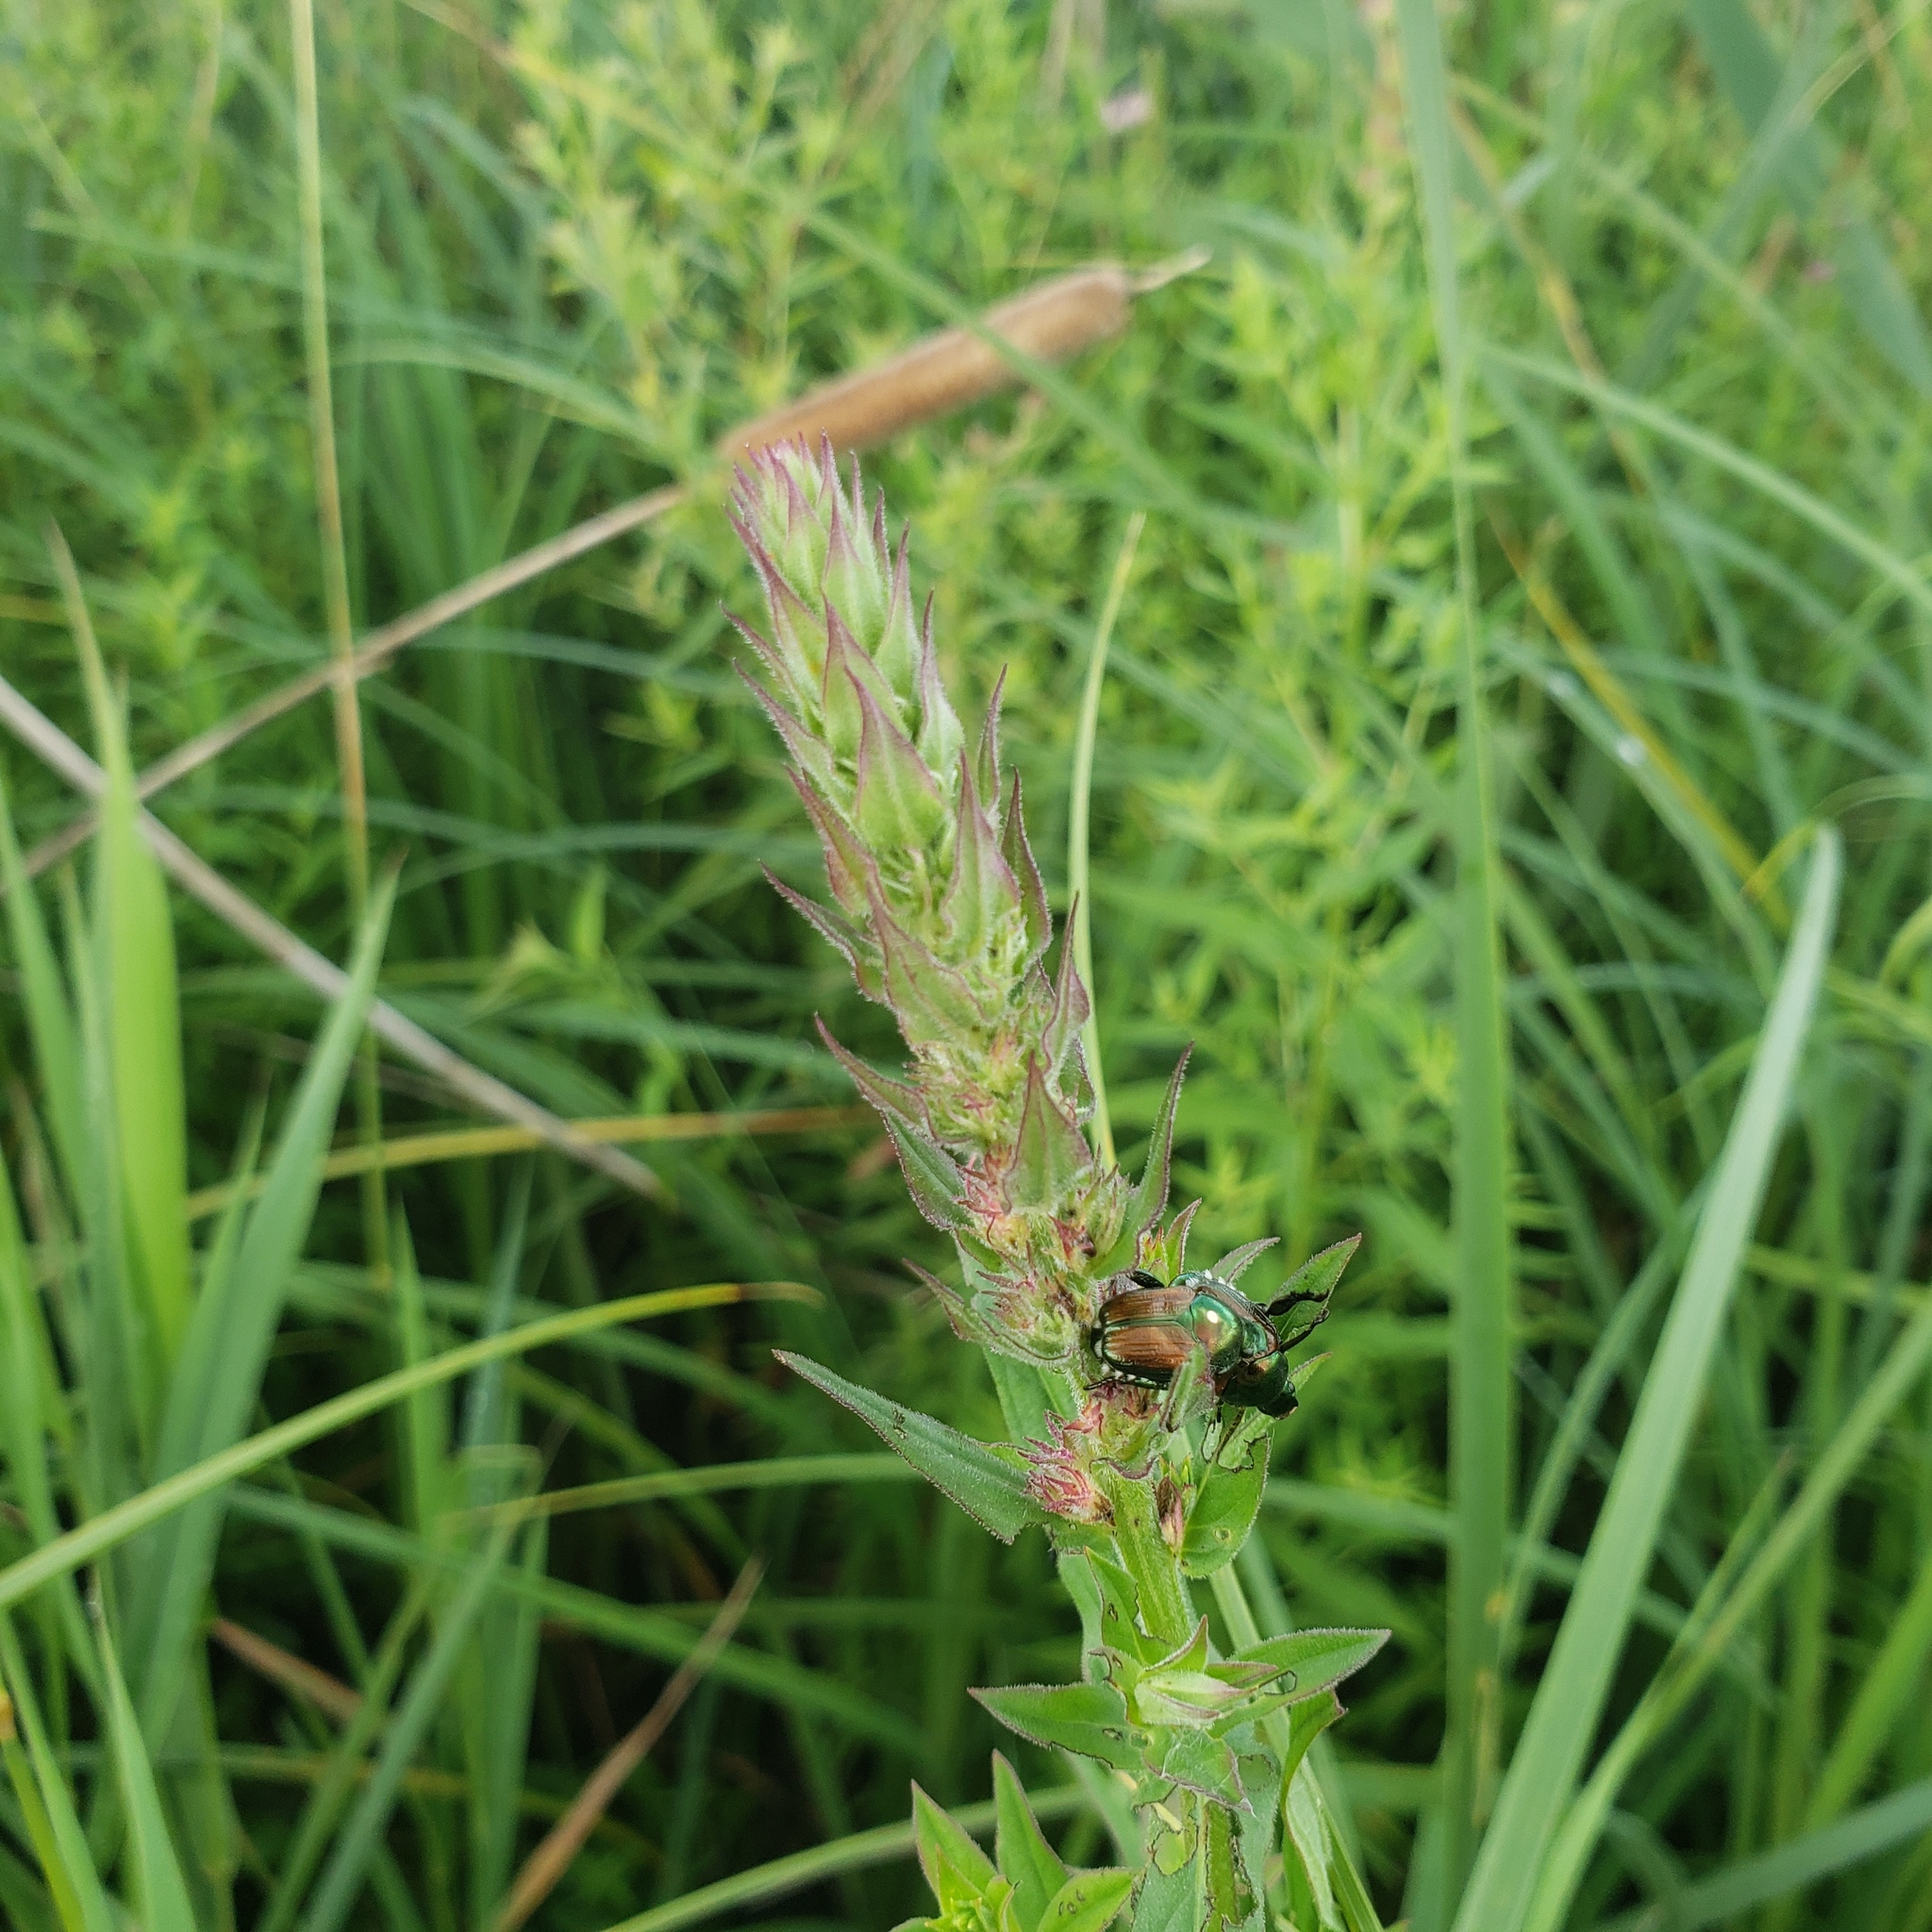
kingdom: Animalia
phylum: Arthropoda
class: Insecta
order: Coleoptera
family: Scarabaeidae
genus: Popillia
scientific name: Popillia japonica
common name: Japanese beetle
